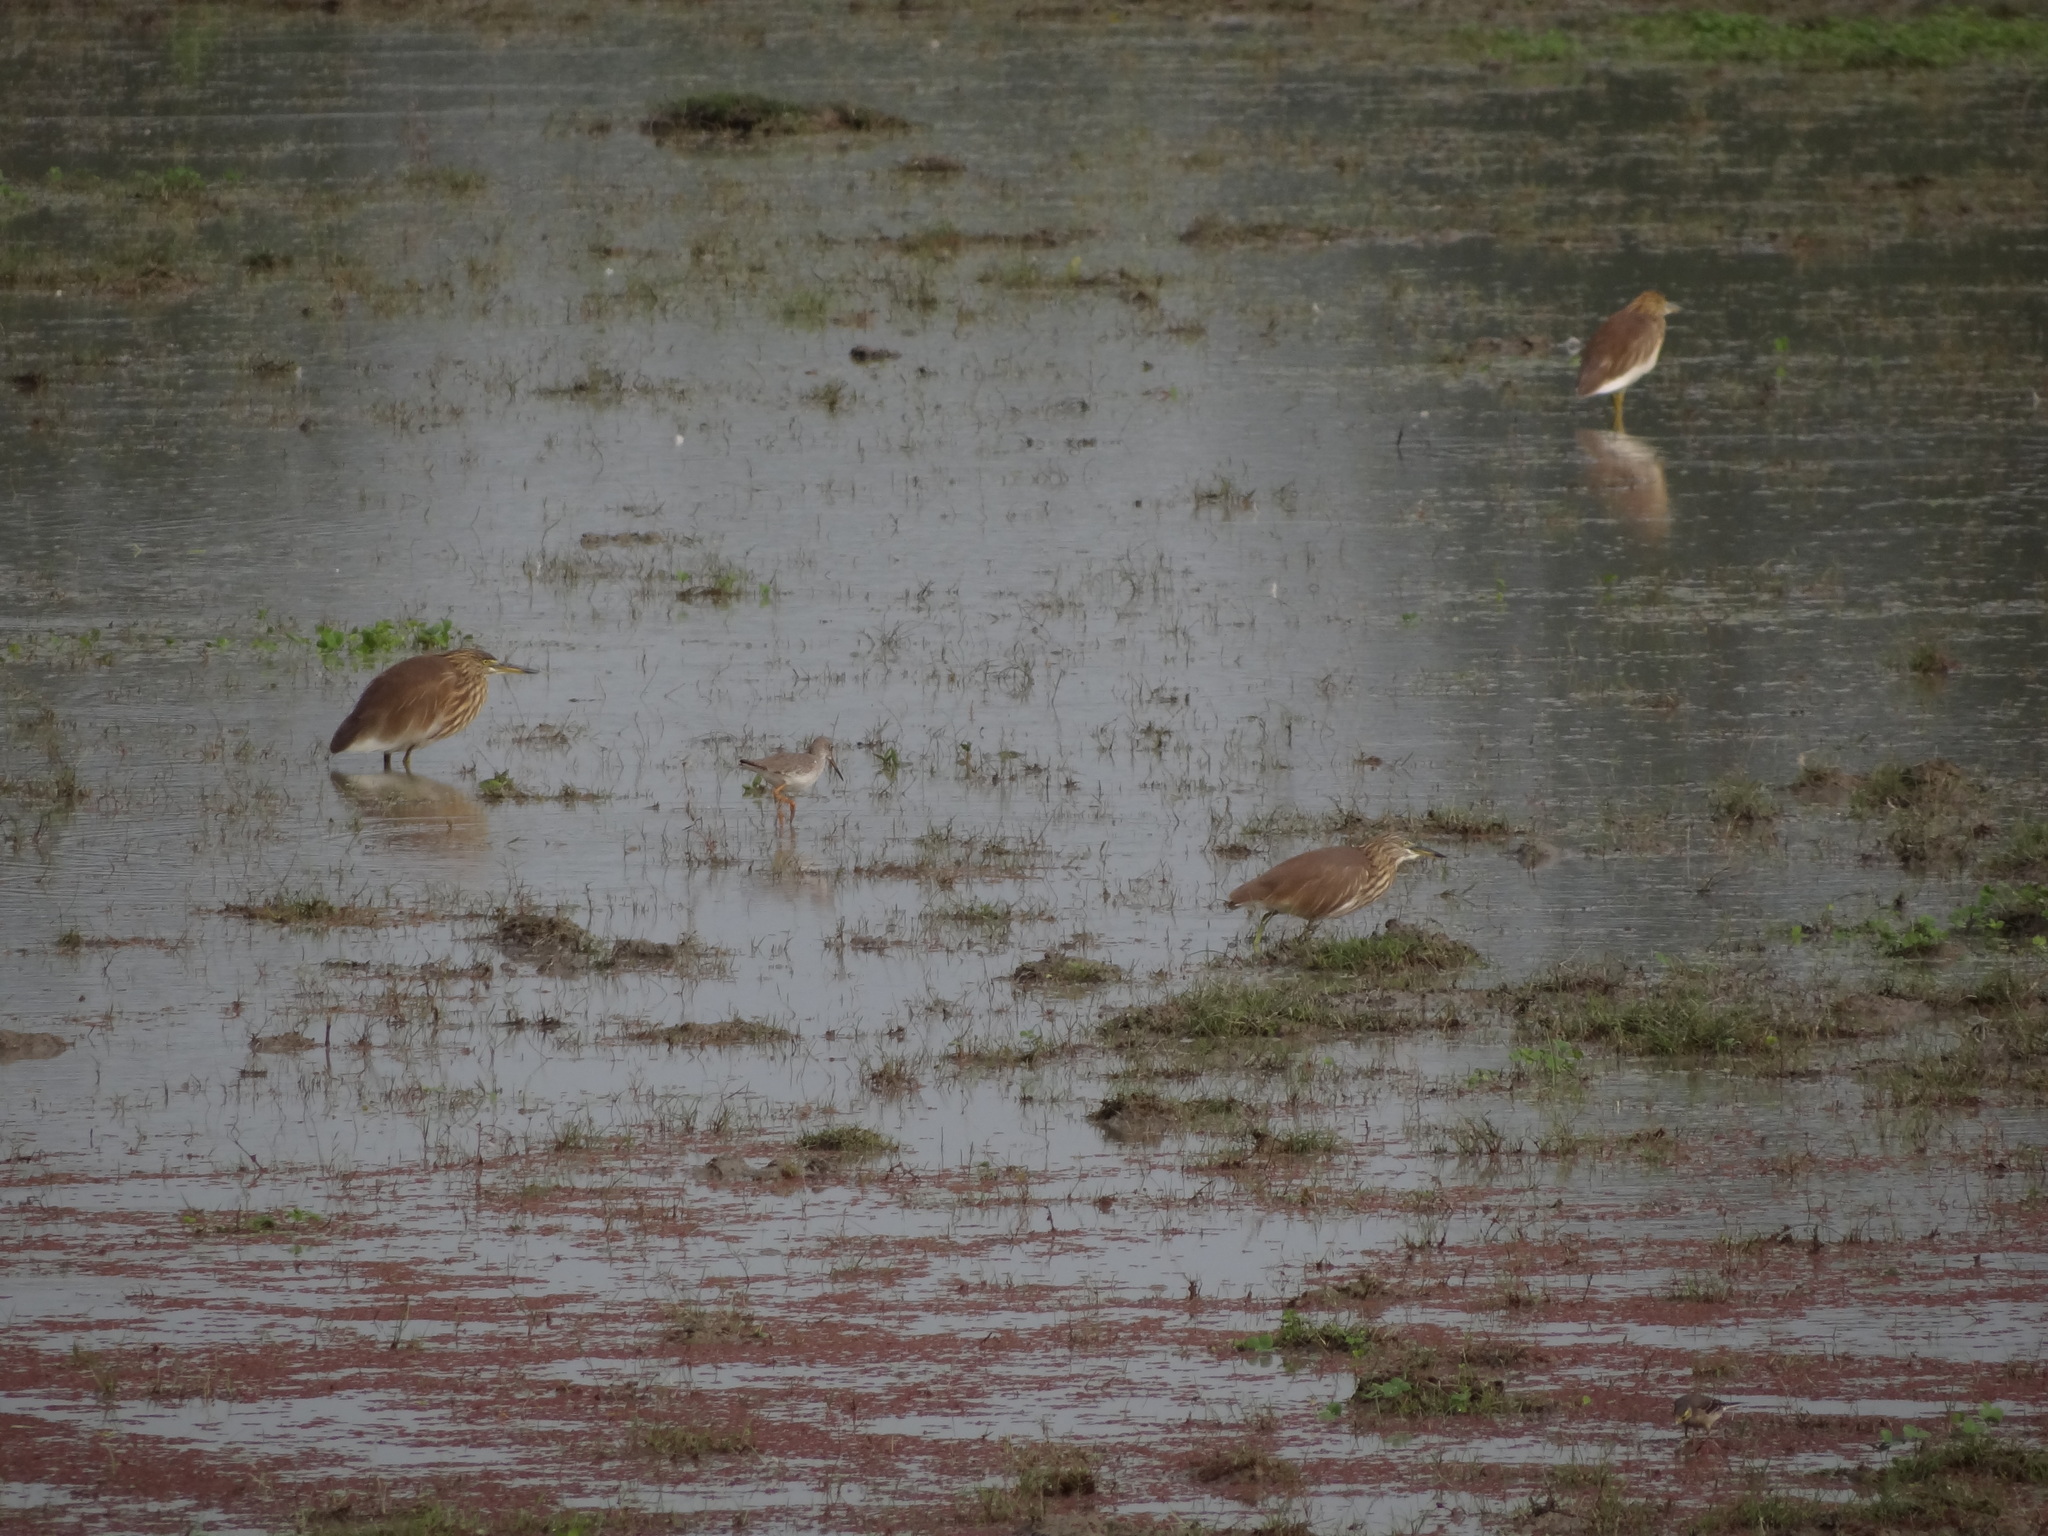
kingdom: Animalia
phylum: Chordata
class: Aves
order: Charadriiformes
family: Scolopacidae
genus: Tringa
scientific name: Tringa totanus
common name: Common redshank
